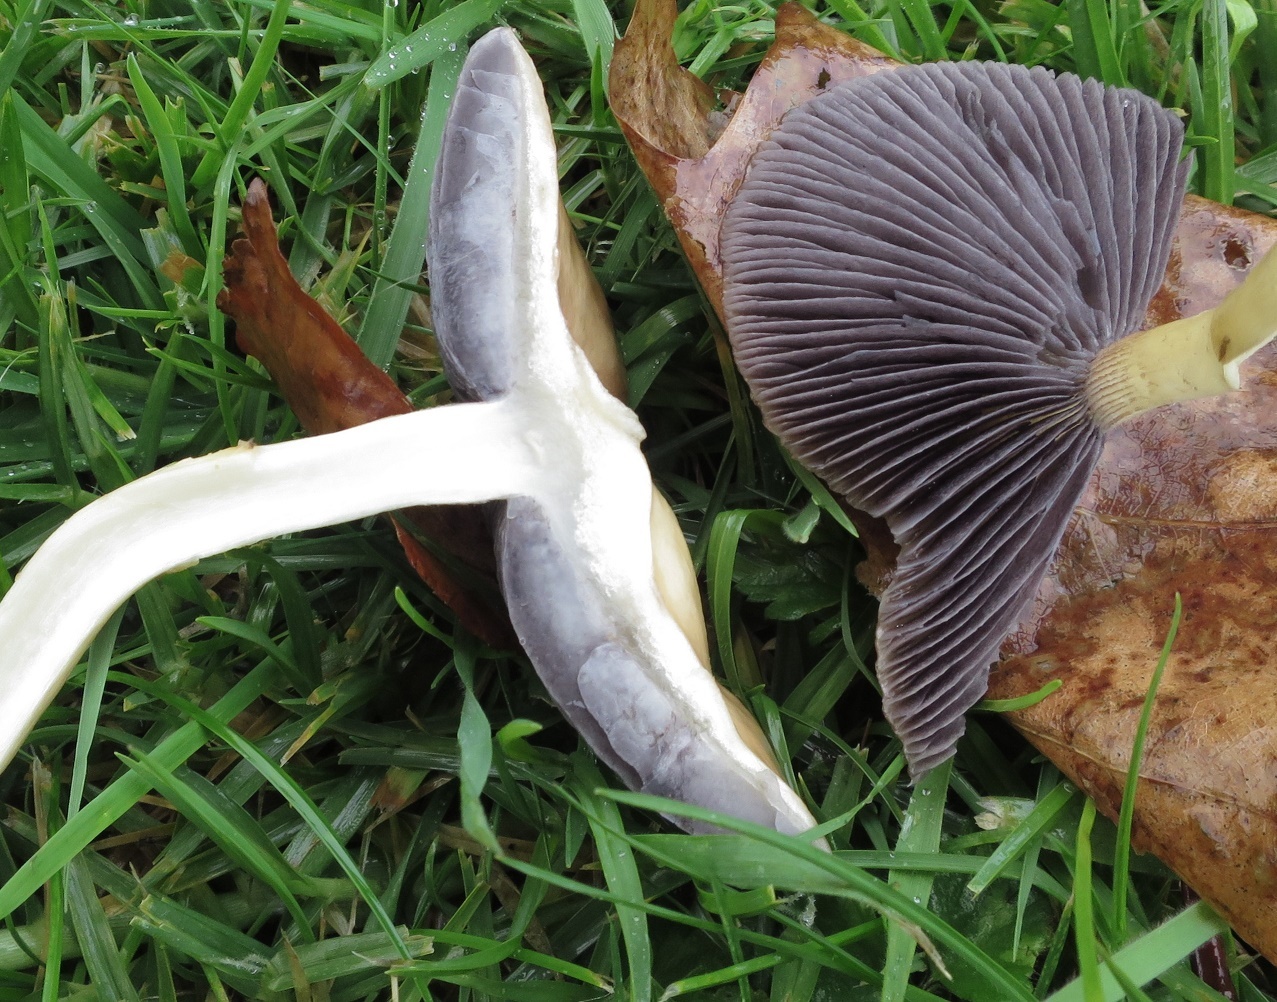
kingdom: Fungi
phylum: Basidiomycota
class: Agaricomycetes
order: Agaricales
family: Strophariaceae
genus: Stropharia
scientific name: Stropharia rugosoannulata
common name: Wine roundhead
